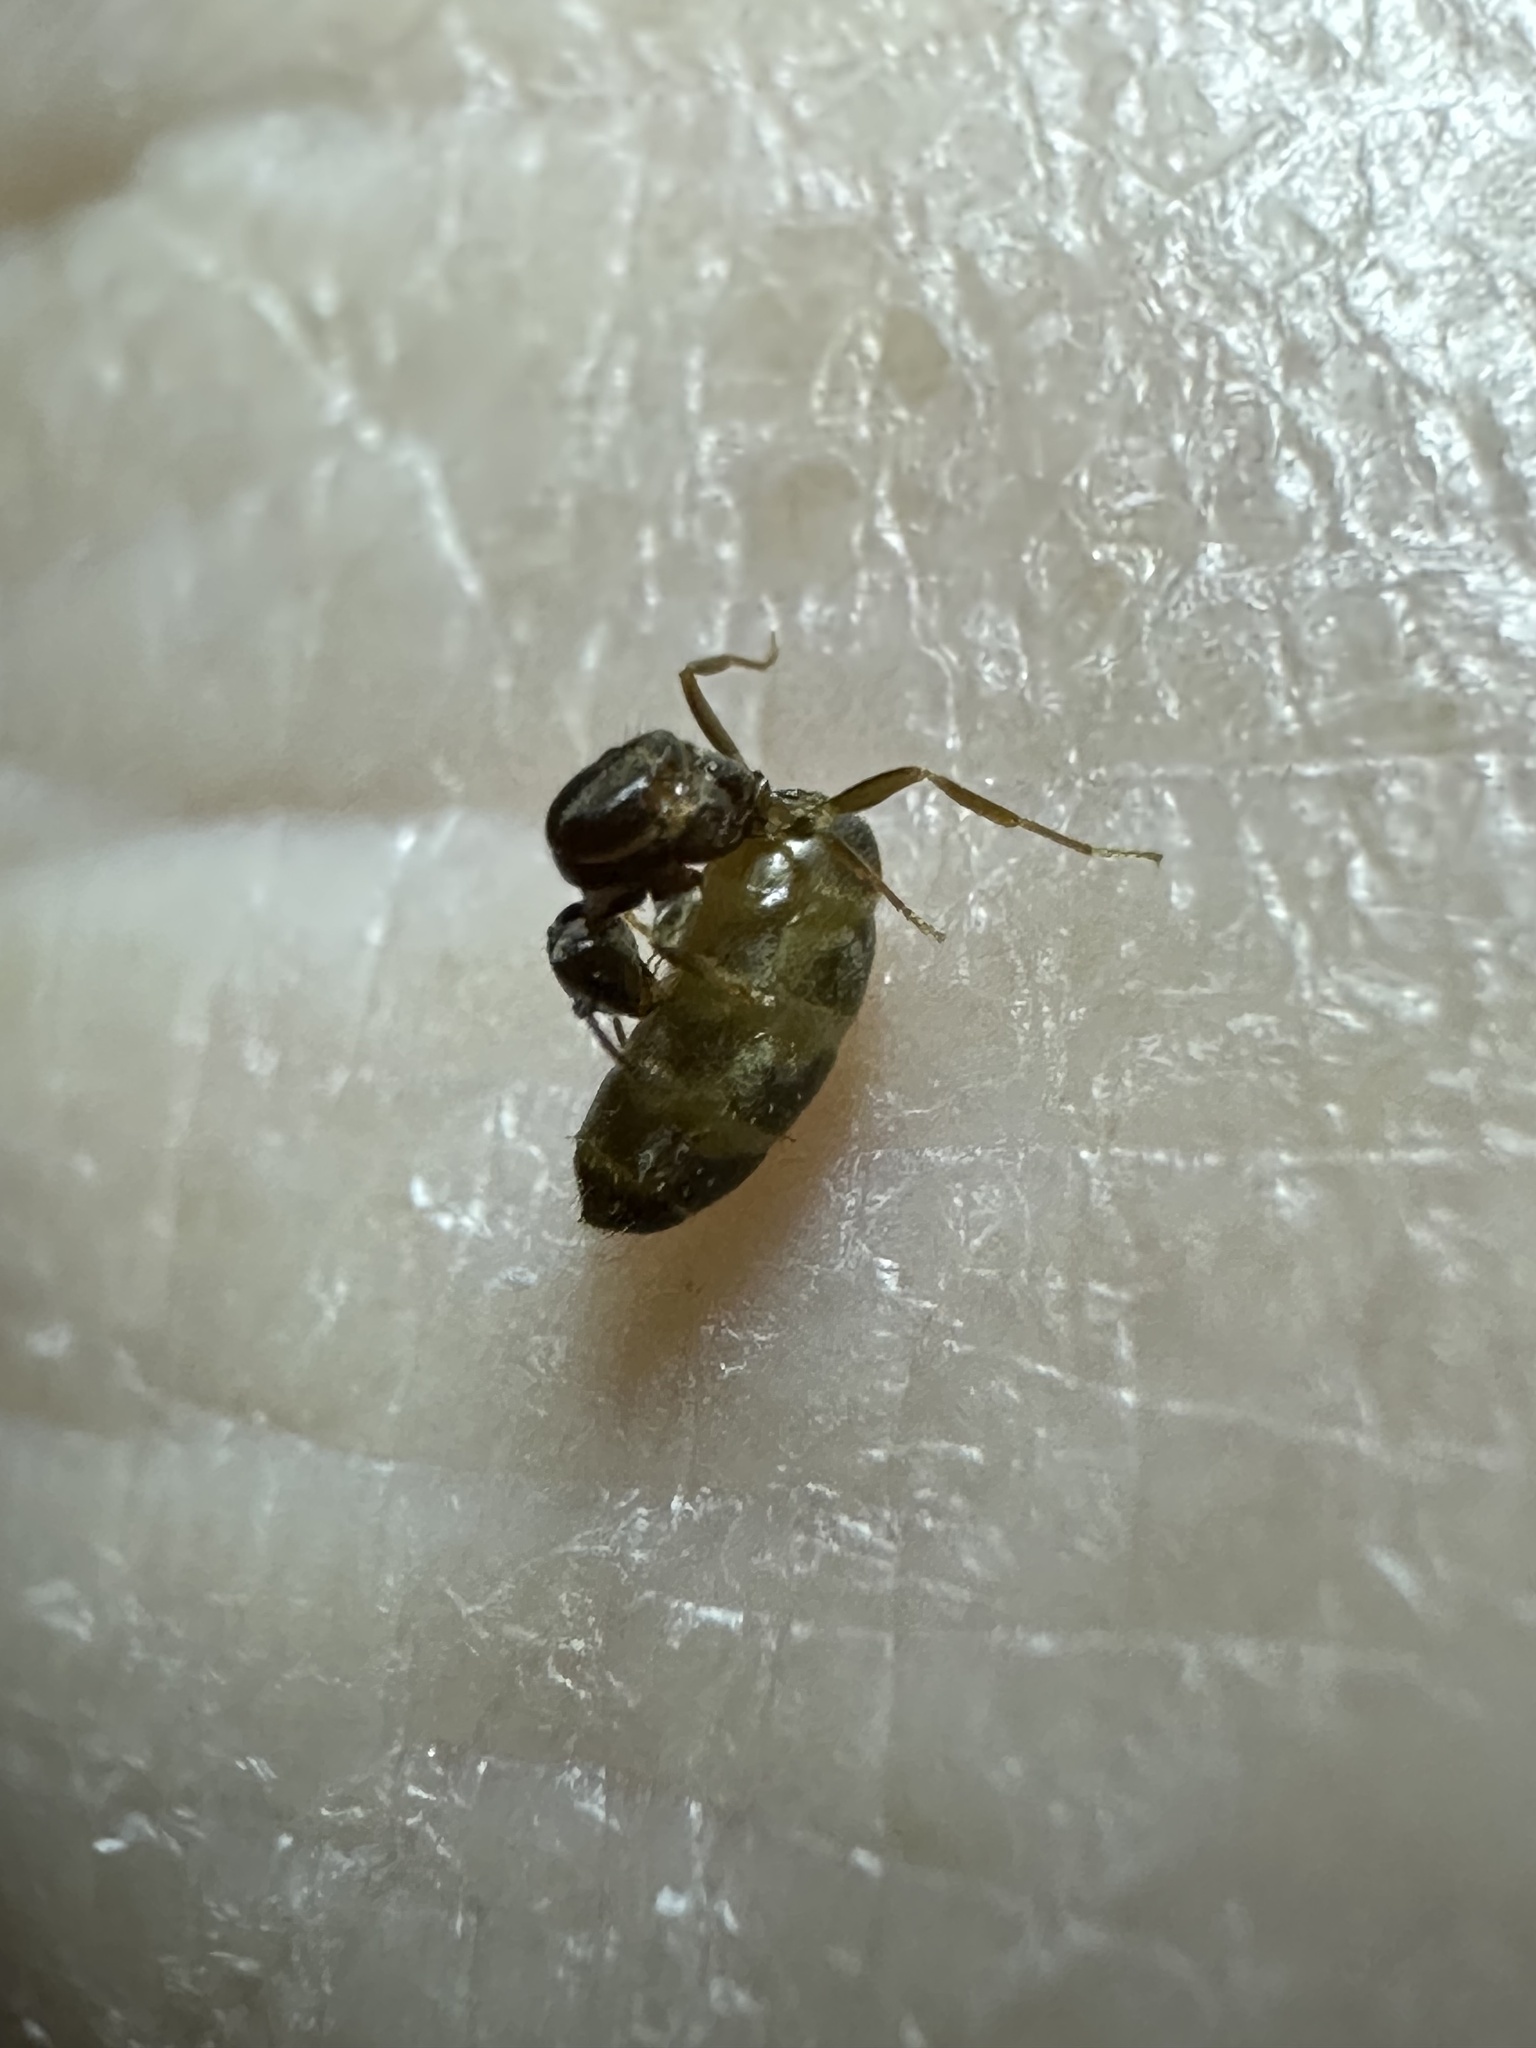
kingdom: Animalia
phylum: Arthropoda
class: Insecta
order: Hymenoptera
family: Formicidae
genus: Brachymyrmex
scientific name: Brachymyrmex obscurior
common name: Obscure rover ant
